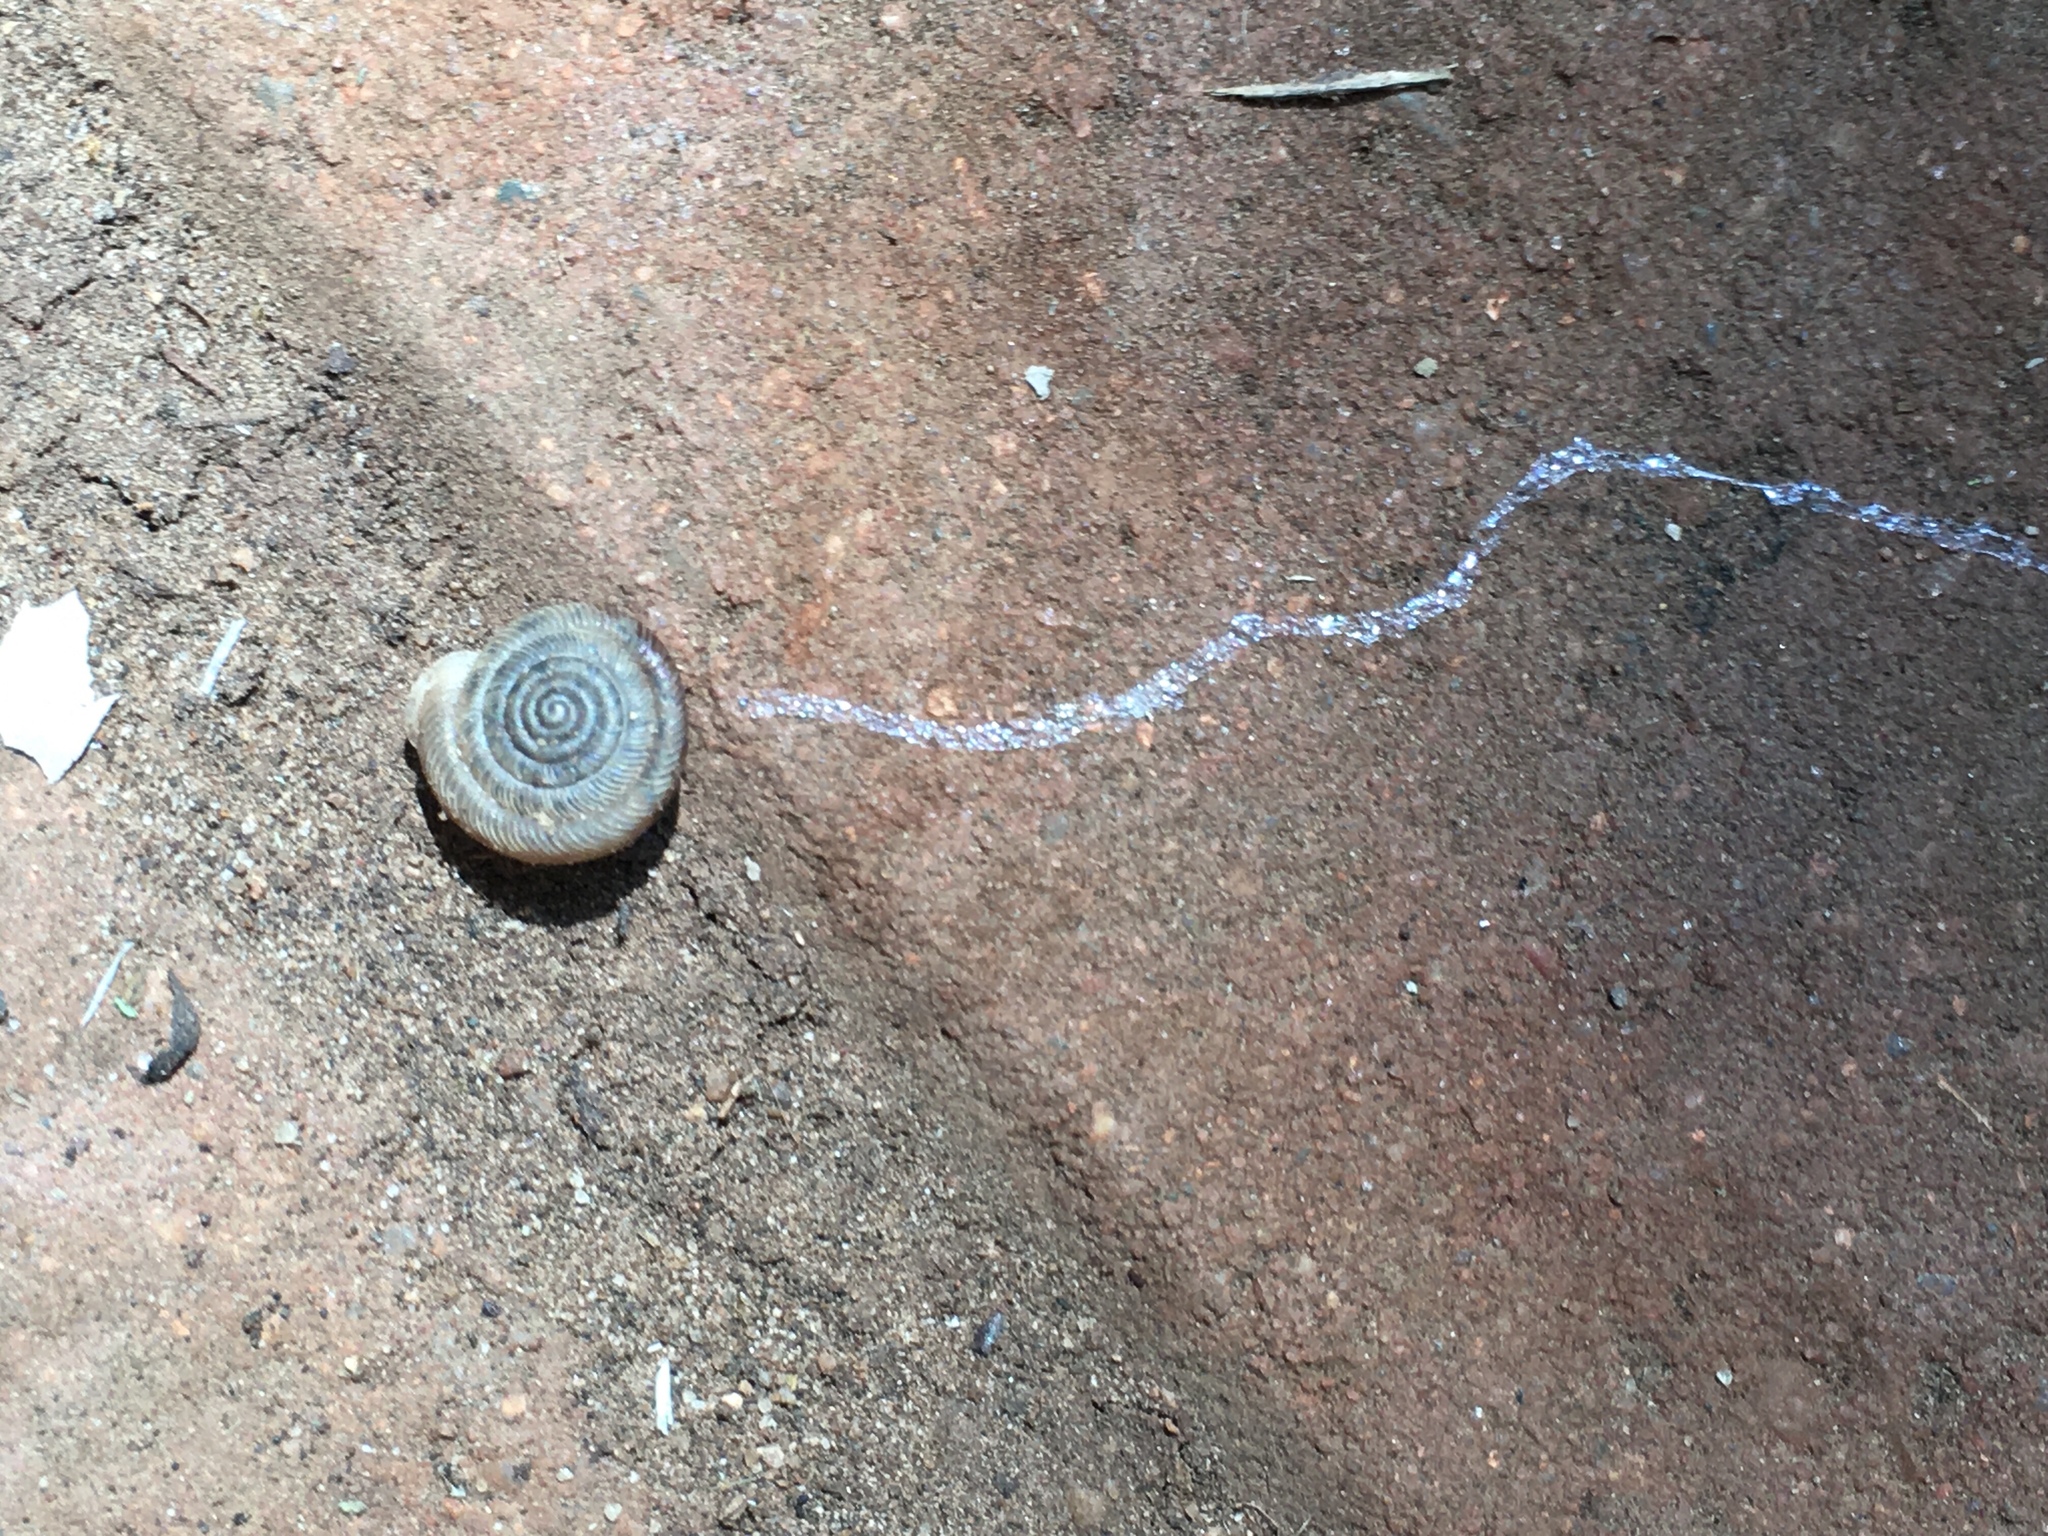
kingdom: Animalia
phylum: Mollusca
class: Gastropoda
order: Stylommatophora
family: Polygyridae
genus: Polygyra
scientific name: Polygyra cereolus
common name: Southern flatcone snail
